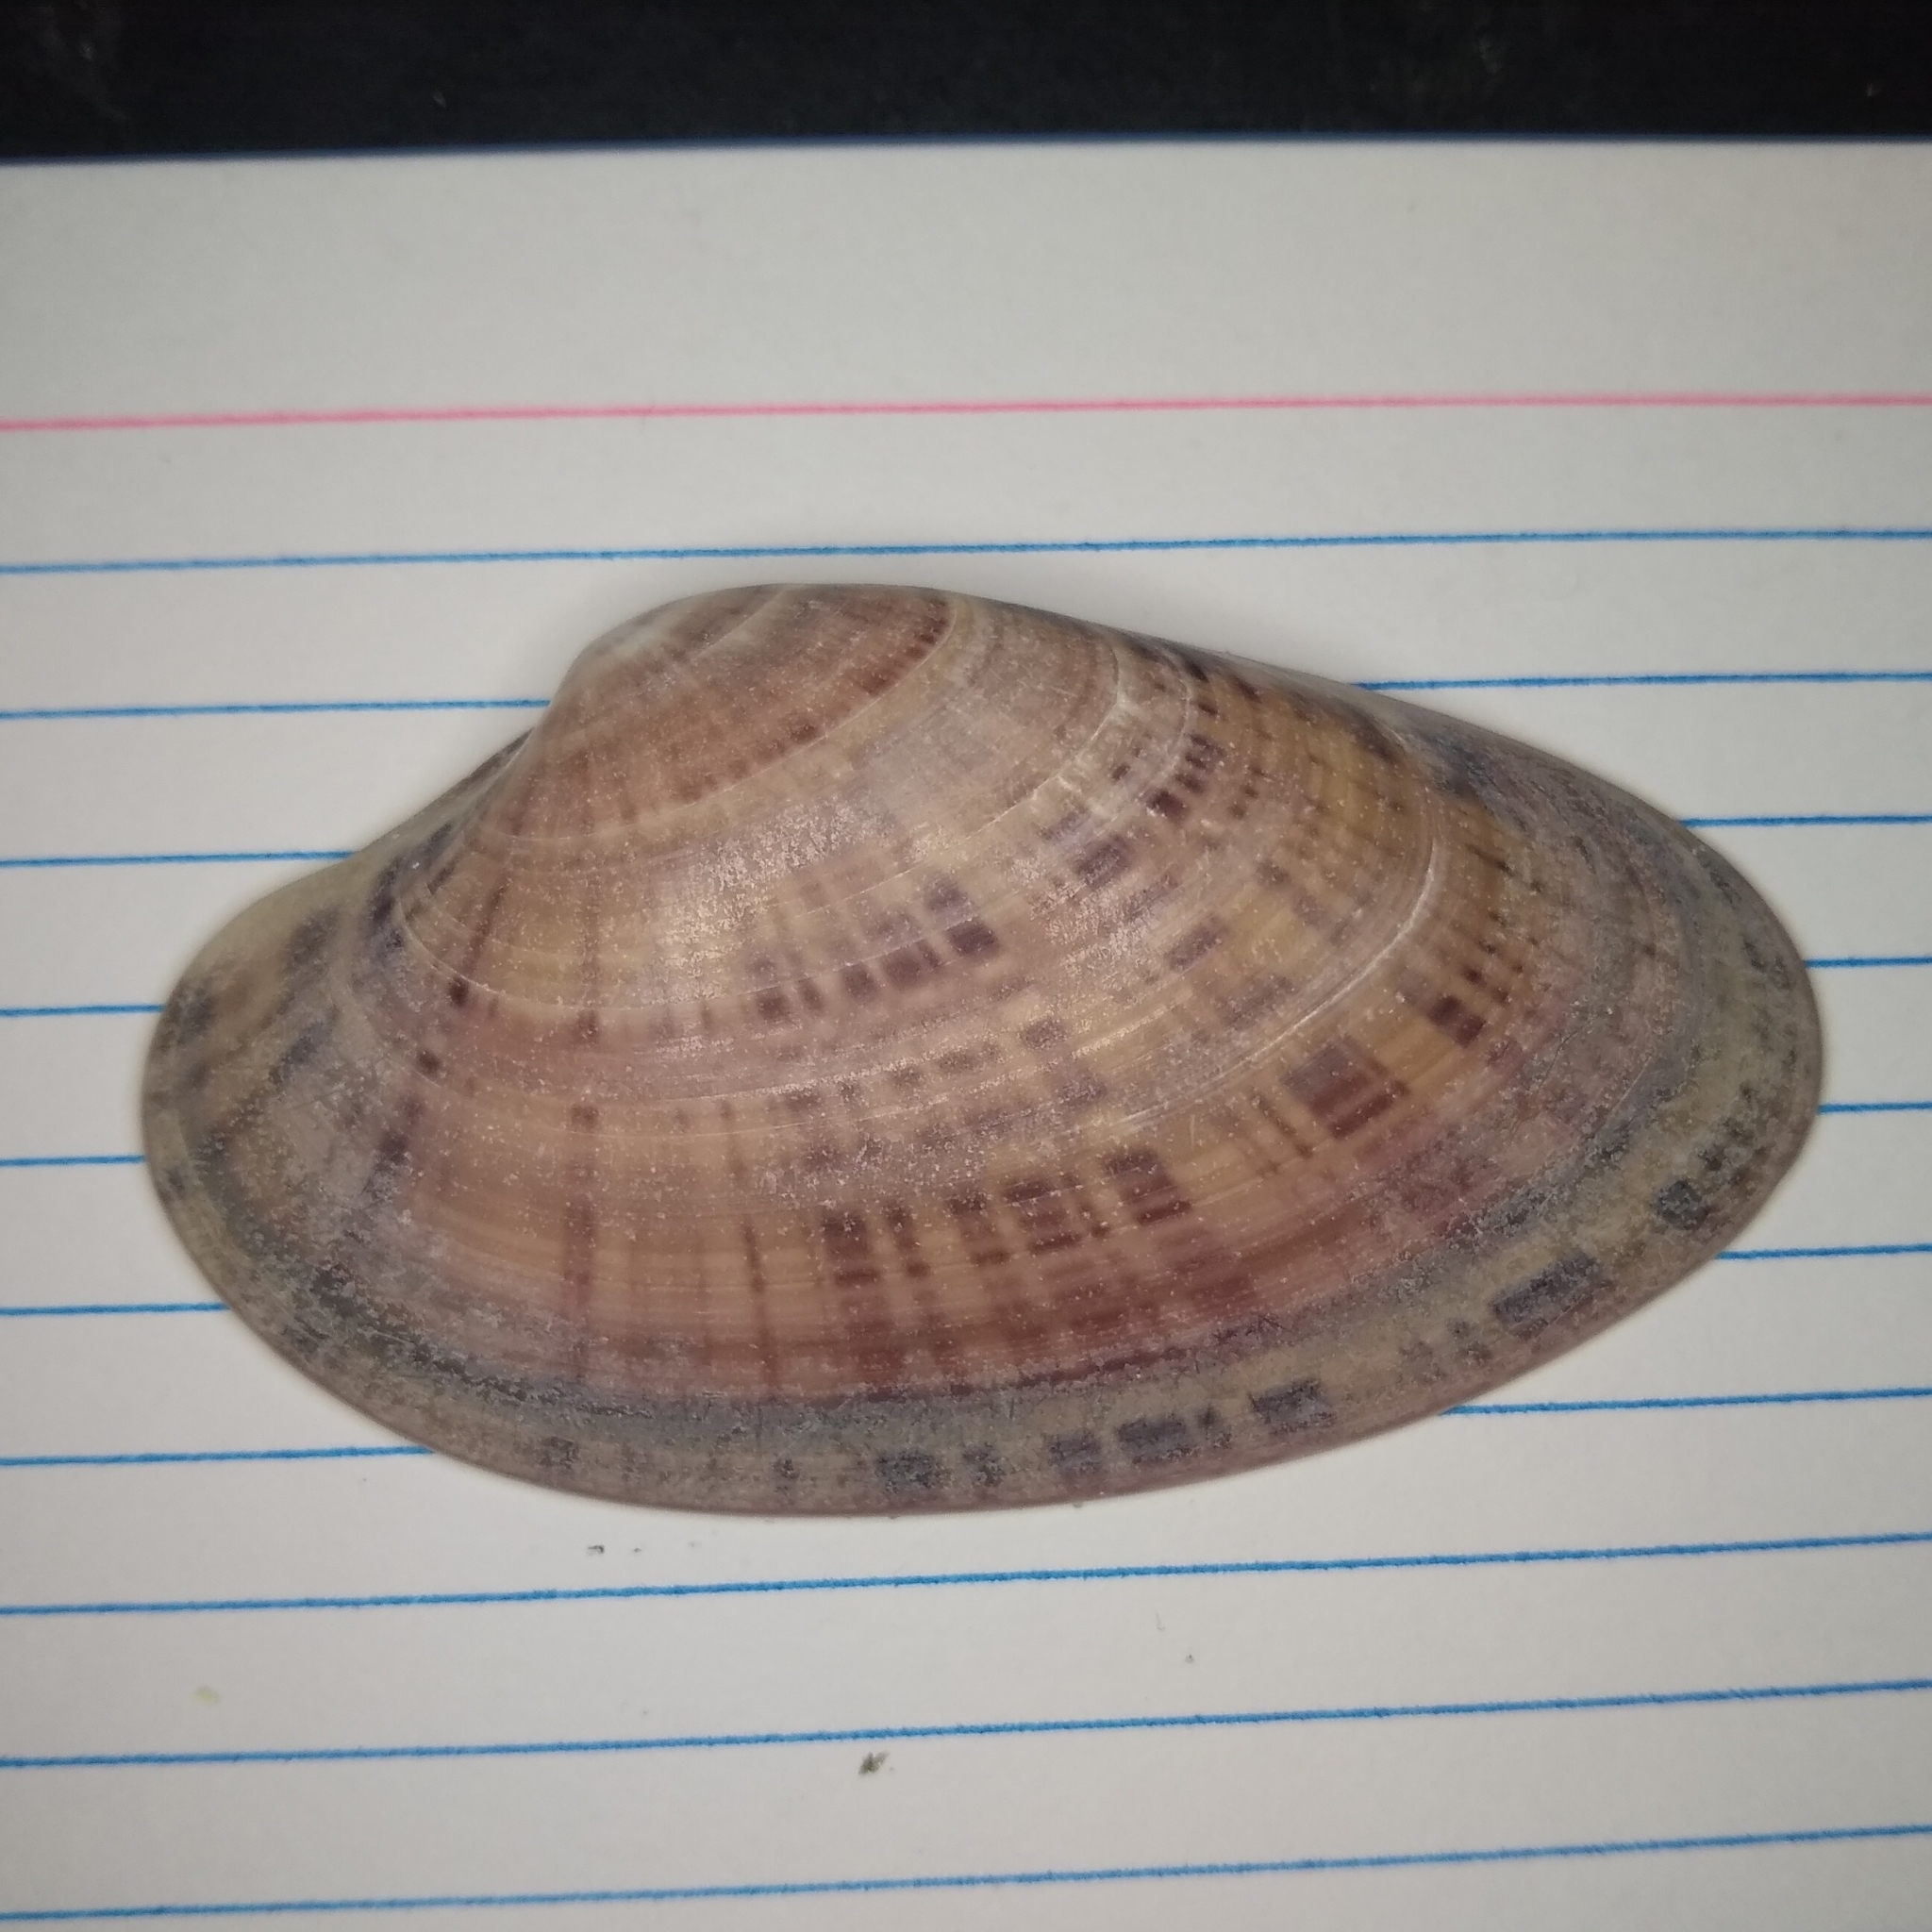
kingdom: Animalia
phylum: Mollusca
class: Bivalvia
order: Venerida
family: Veneridae
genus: Macrocallista
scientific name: Macrocallista nimbosa
